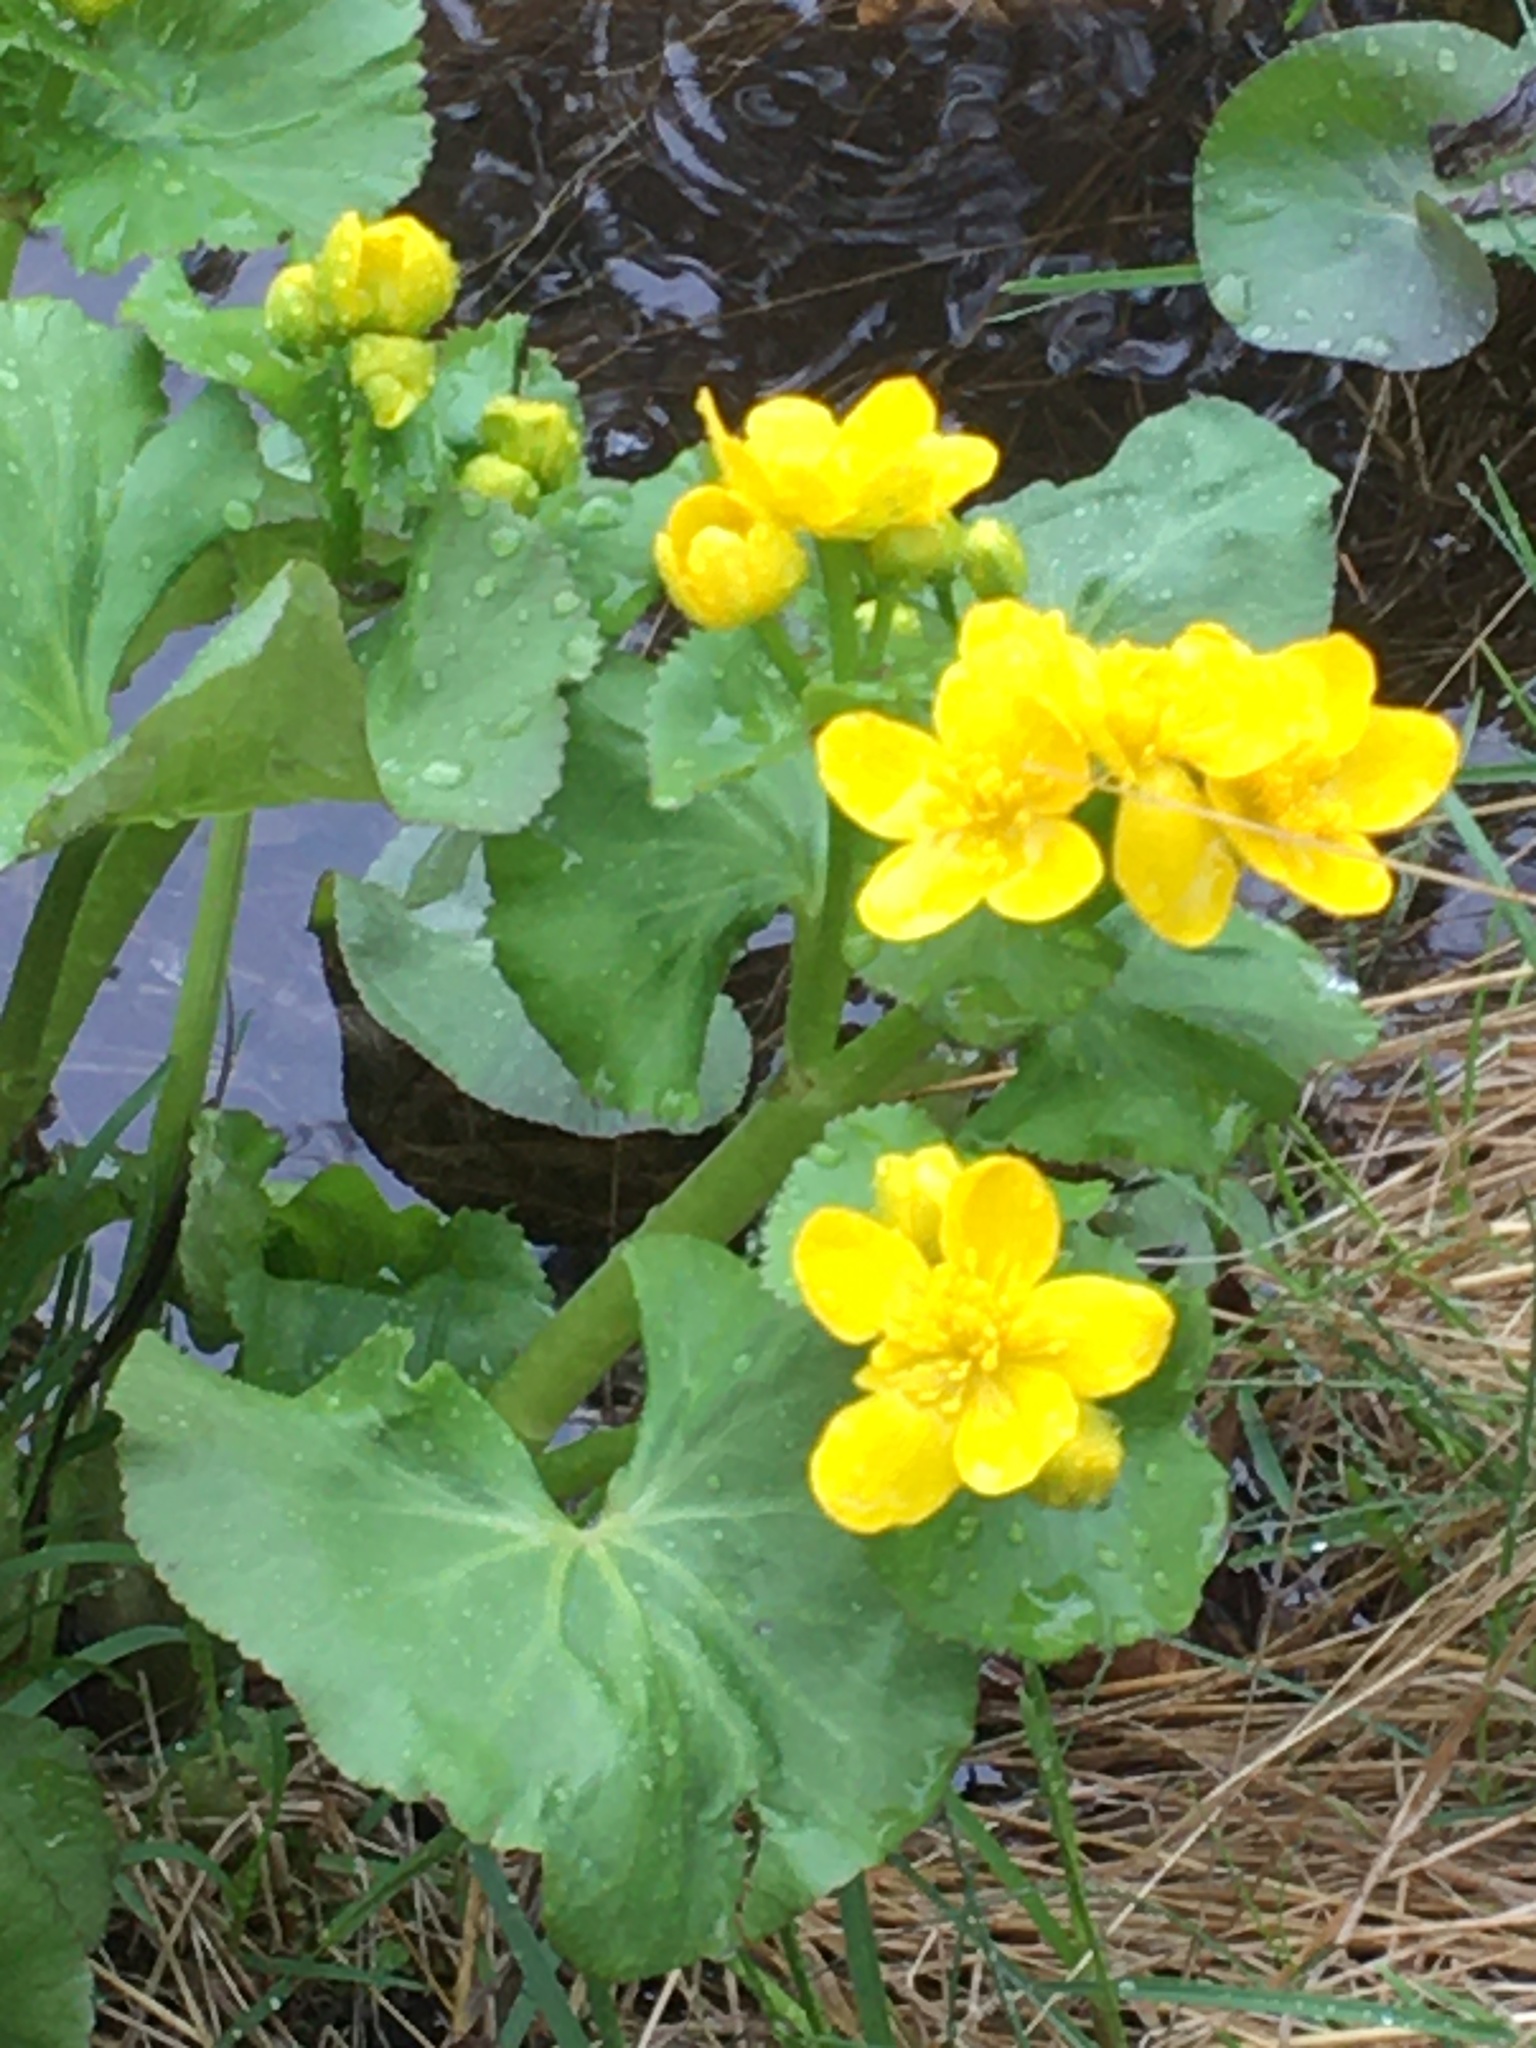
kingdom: Plantae
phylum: Tracheophyta
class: Magnoliopsida
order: Ranunculales
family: Ranunculaceae
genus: Caltha
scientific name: Caltha palustris
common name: Marsh marigold
